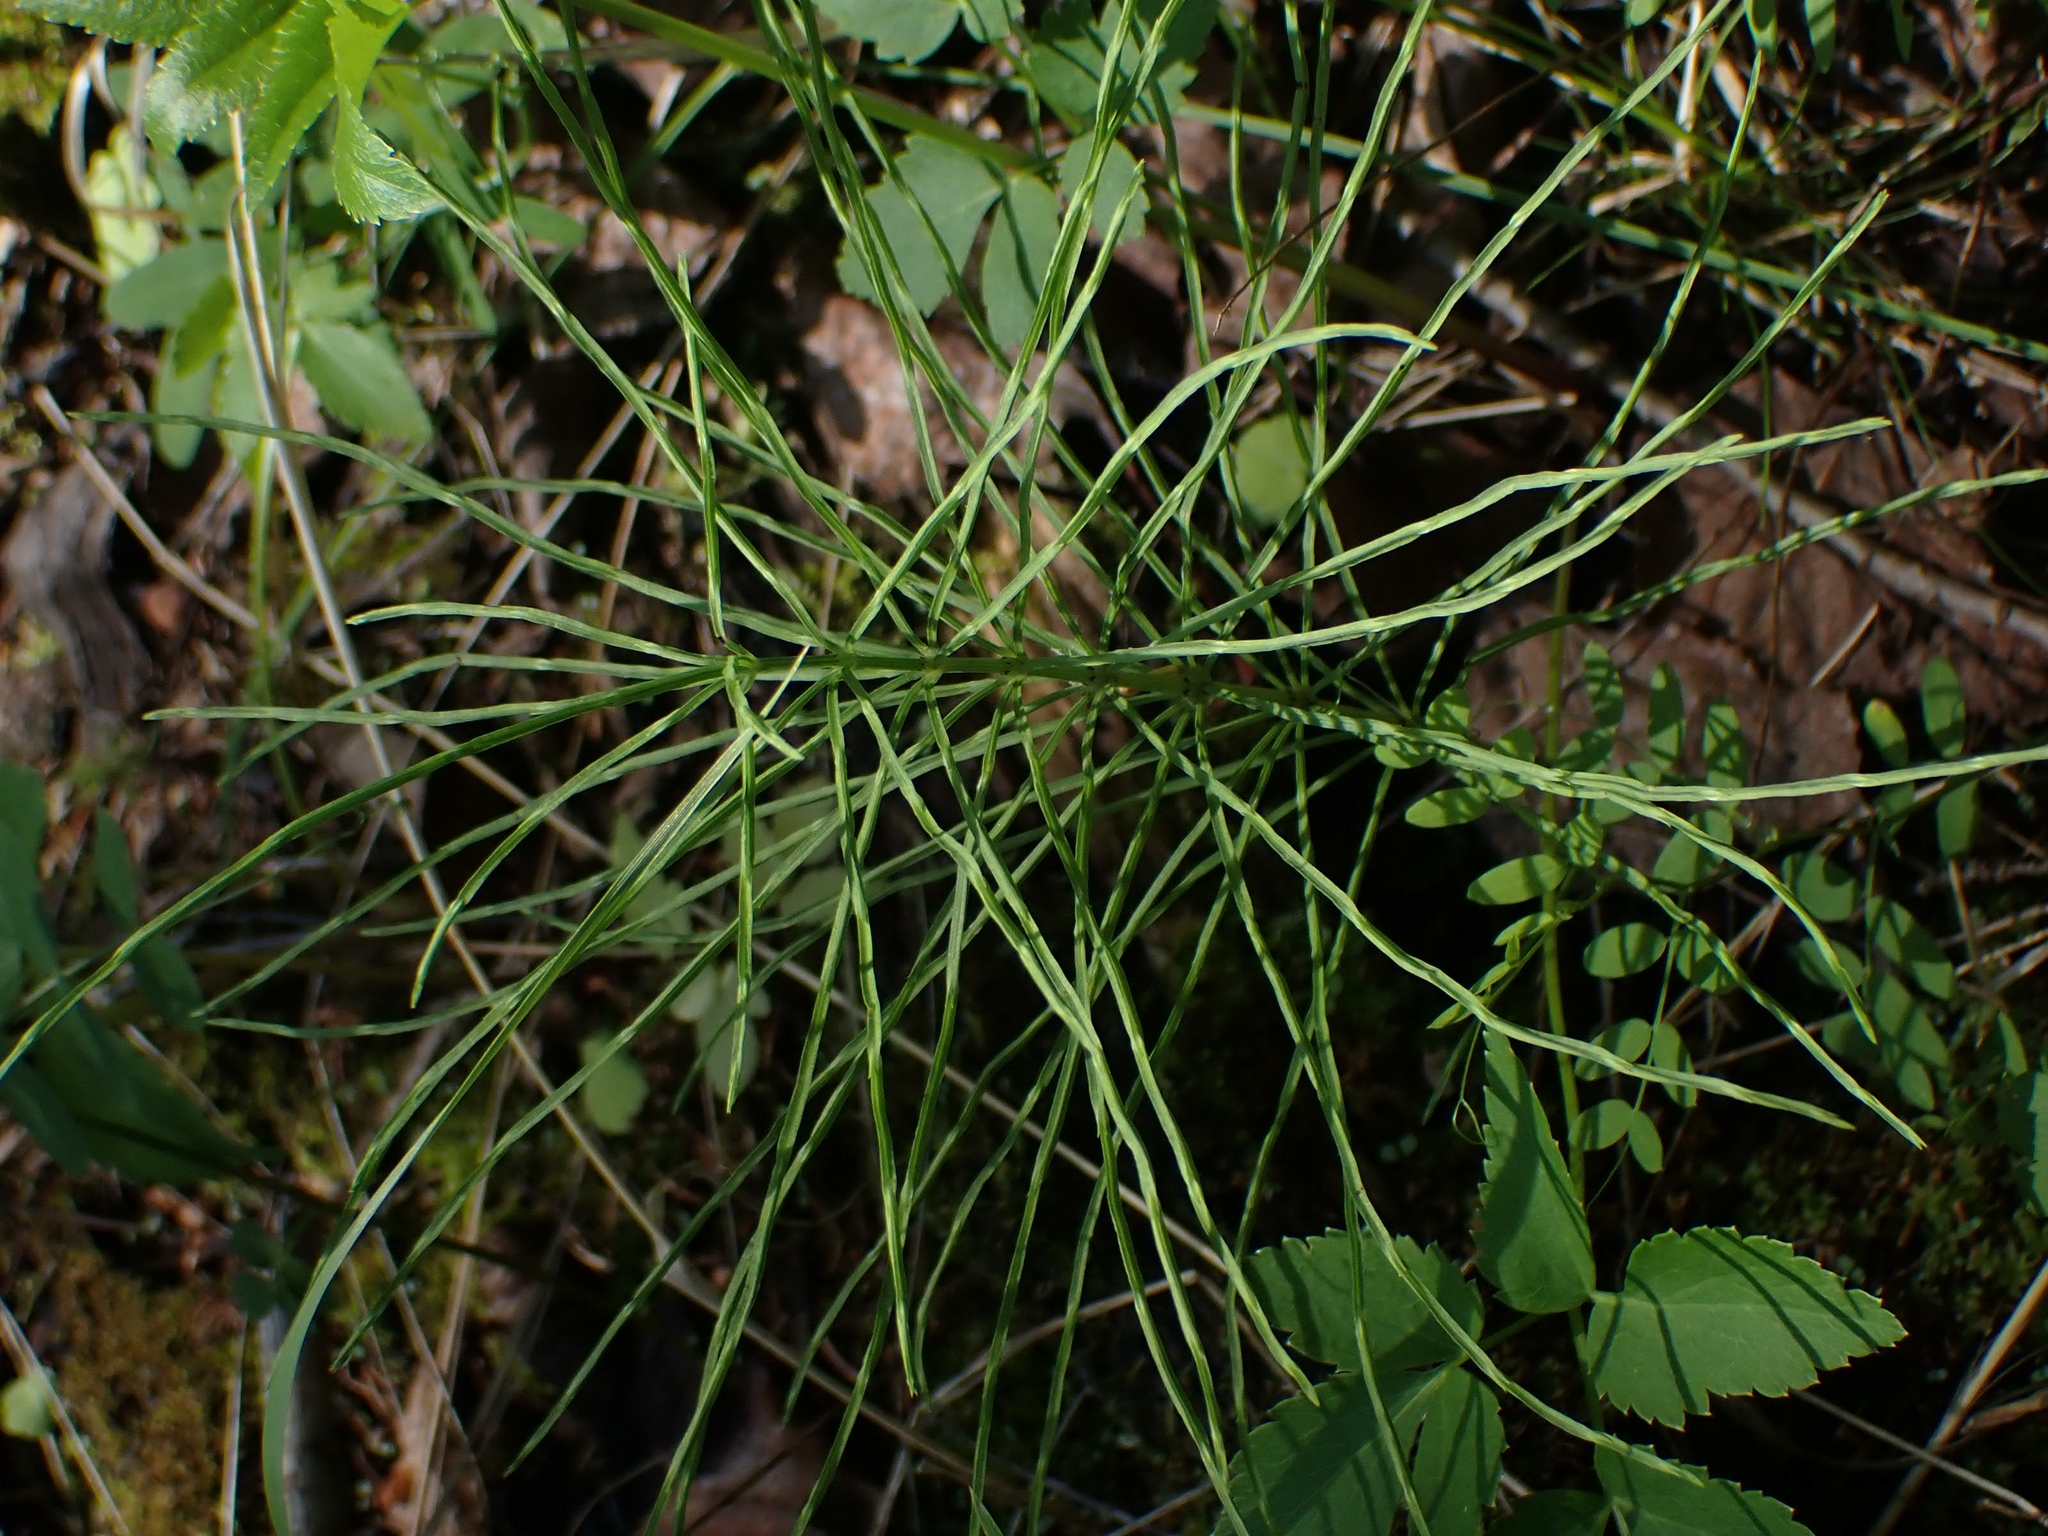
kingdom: Plantae
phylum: Tracheophyta
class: Polypodiopsida
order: Equisetales
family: Equisetaceae
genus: Equisetum
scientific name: Equisetum pratense
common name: Meadow horsetail
